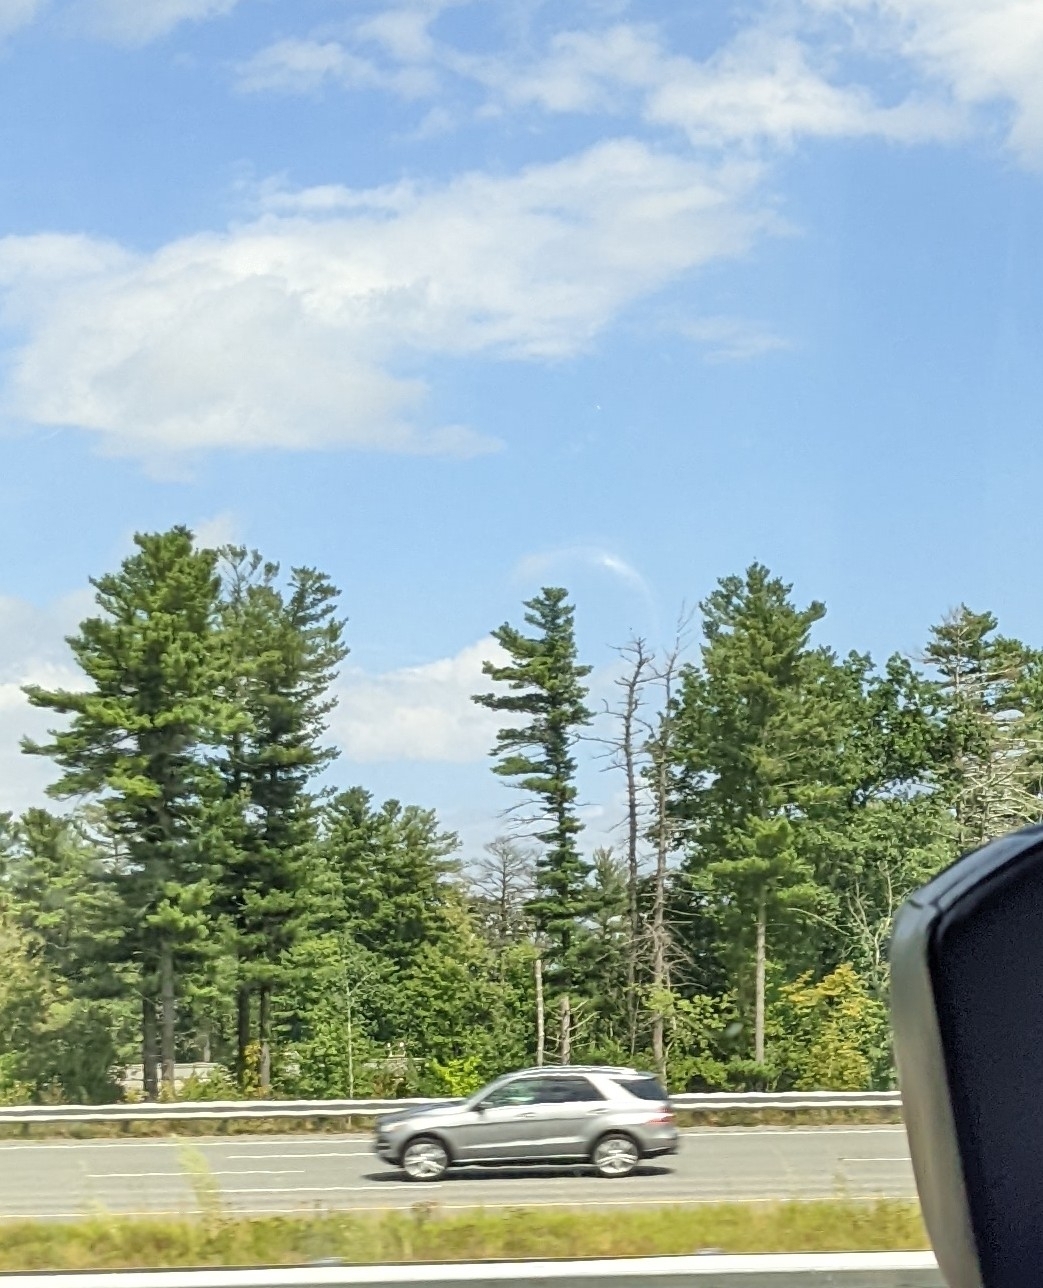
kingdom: Plantae
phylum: Tracheophyta
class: Pinopsida
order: Pinales
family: Pinaceae
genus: Pinus
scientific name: Pinus strobus
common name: Weymouth pine
